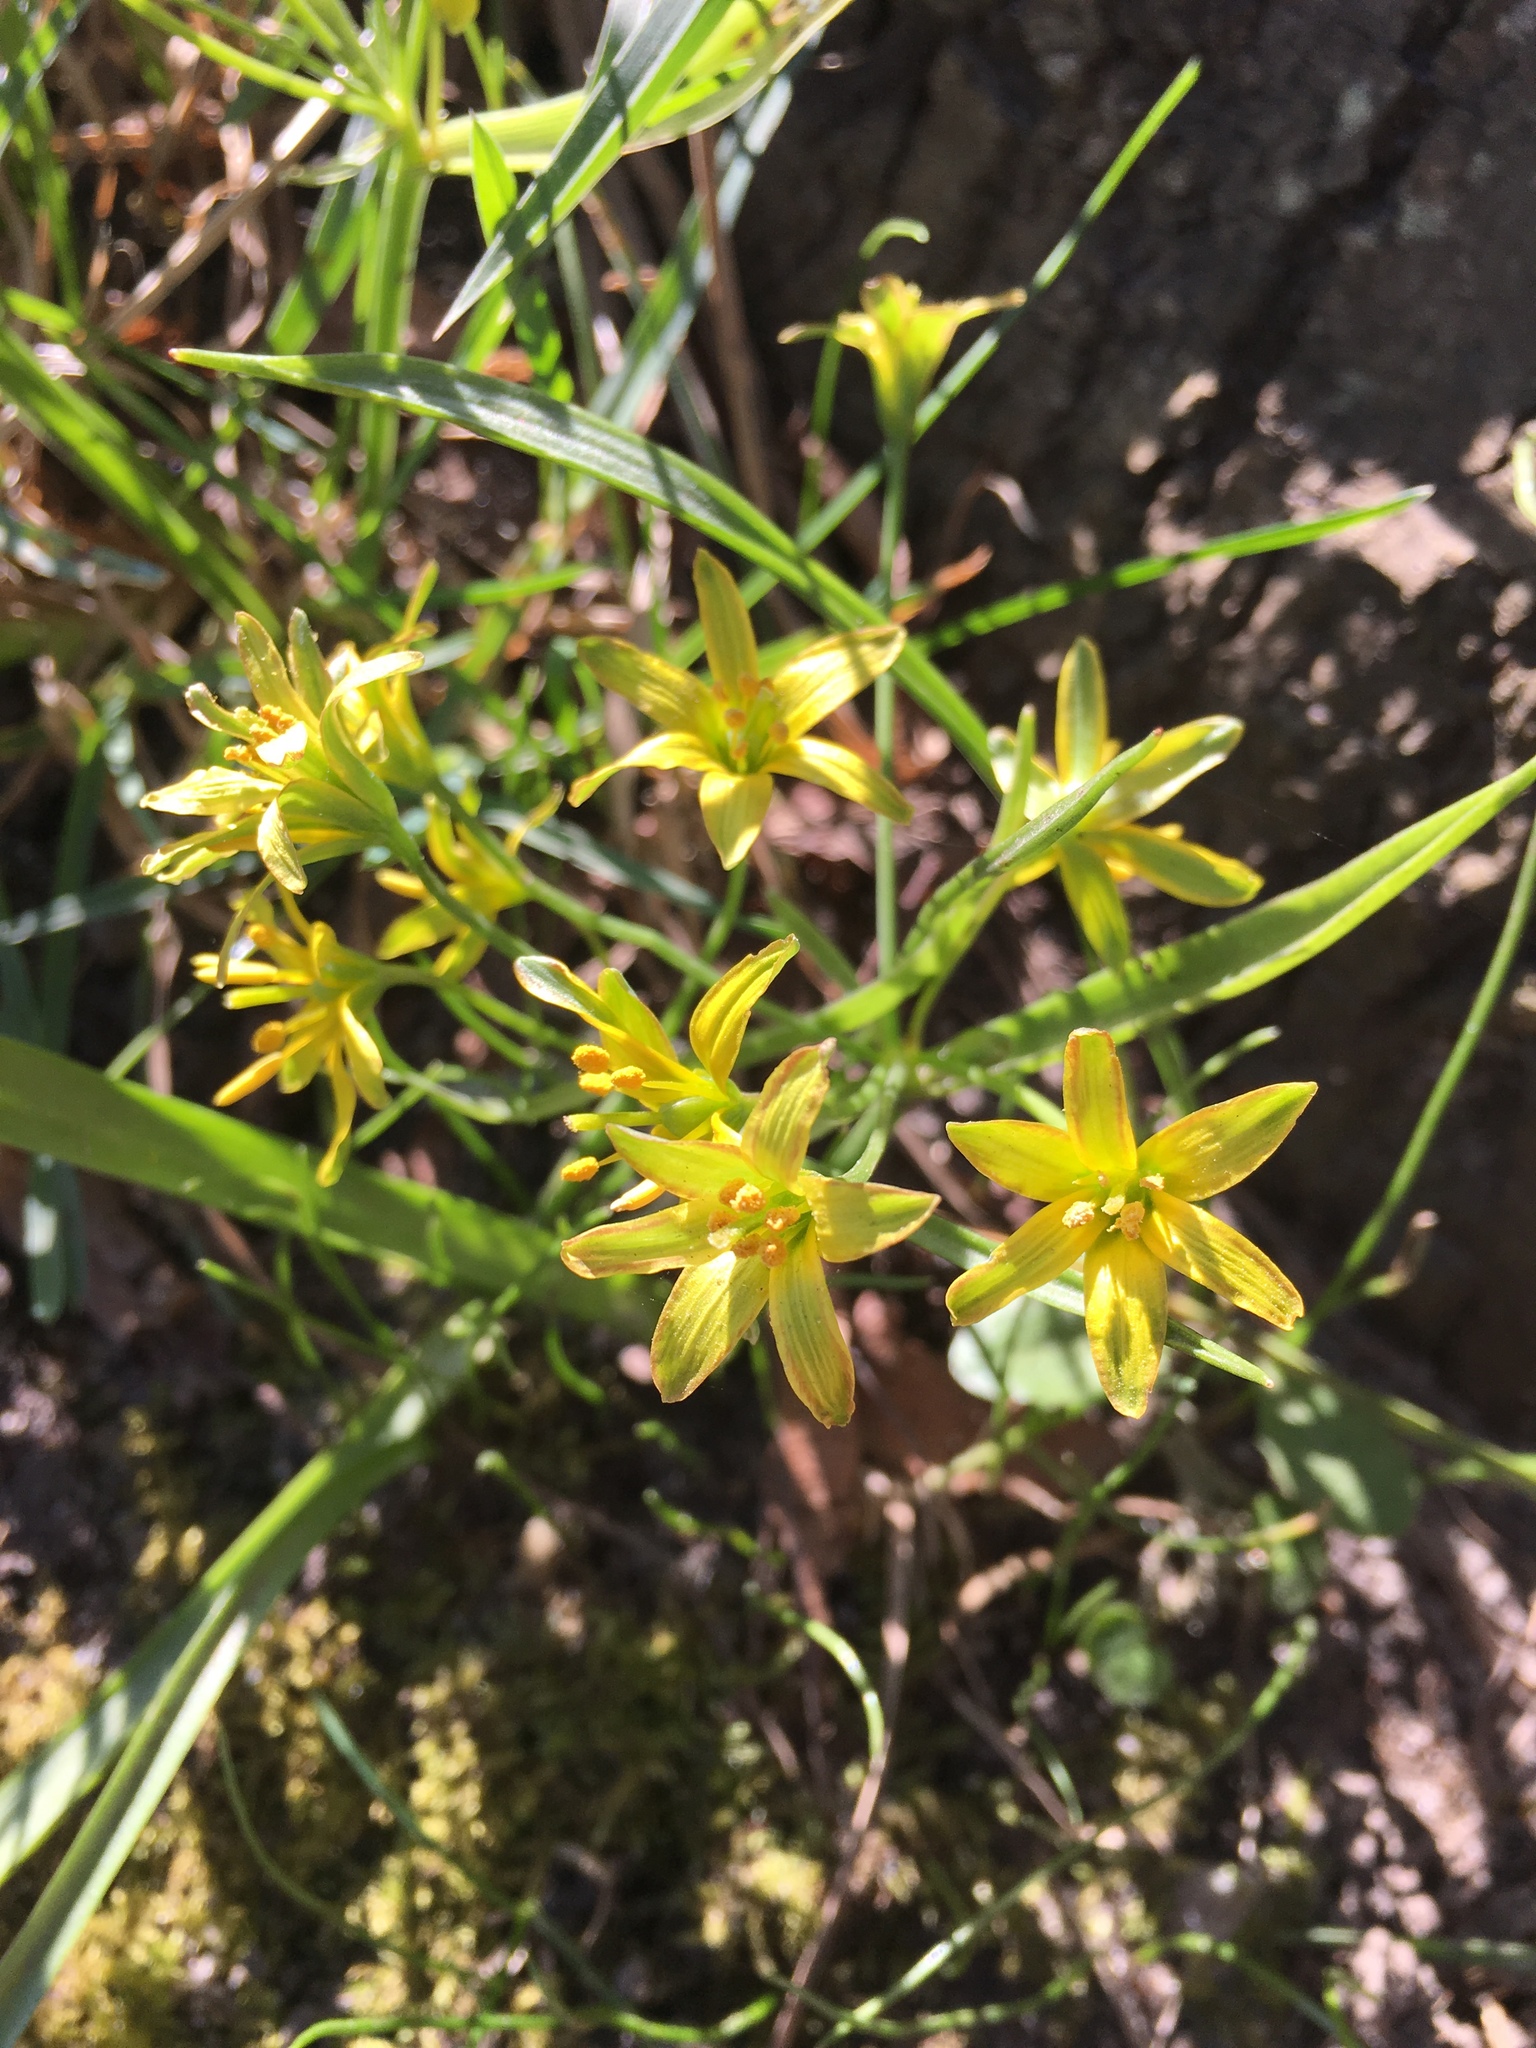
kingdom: Plantae
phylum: Tracheophyta
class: Liliopsida
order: Liliales
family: Liliaceae
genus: Gagea
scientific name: Gagea lutea
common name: Yellow star-of-bethlehem
